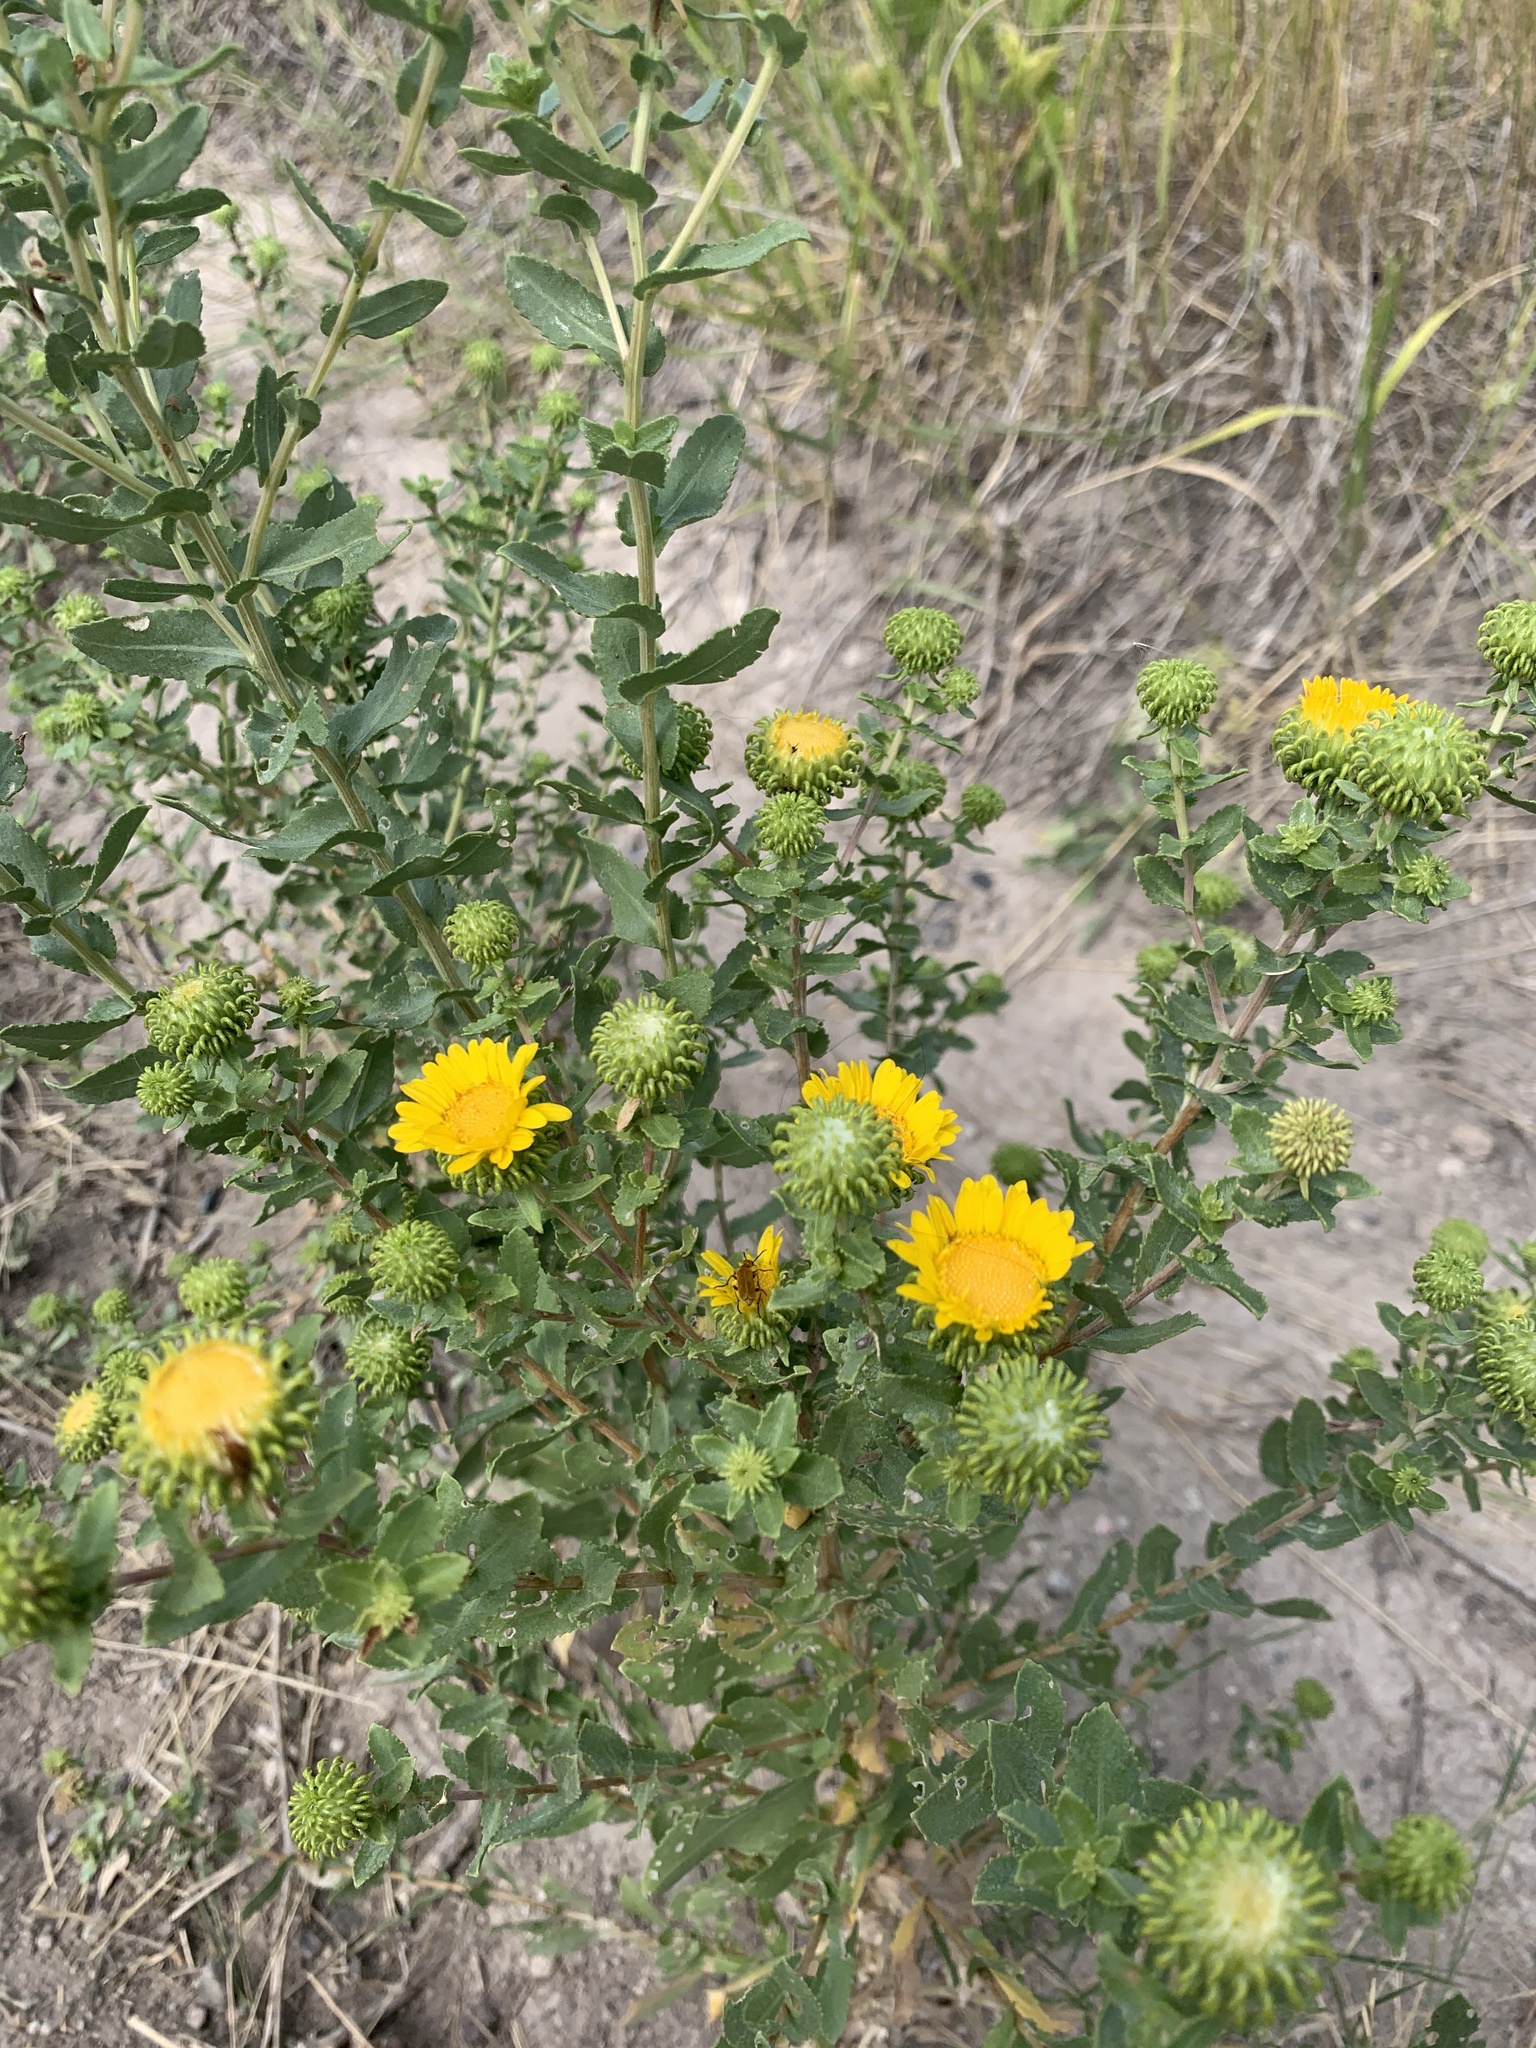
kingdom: Plantae
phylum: Tracheophyta
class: Magnoliopsida
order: Asterales
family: Asteraceae
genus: Grindelia
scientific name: Grindelia squarrosa
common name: Curly-cup gumweed
